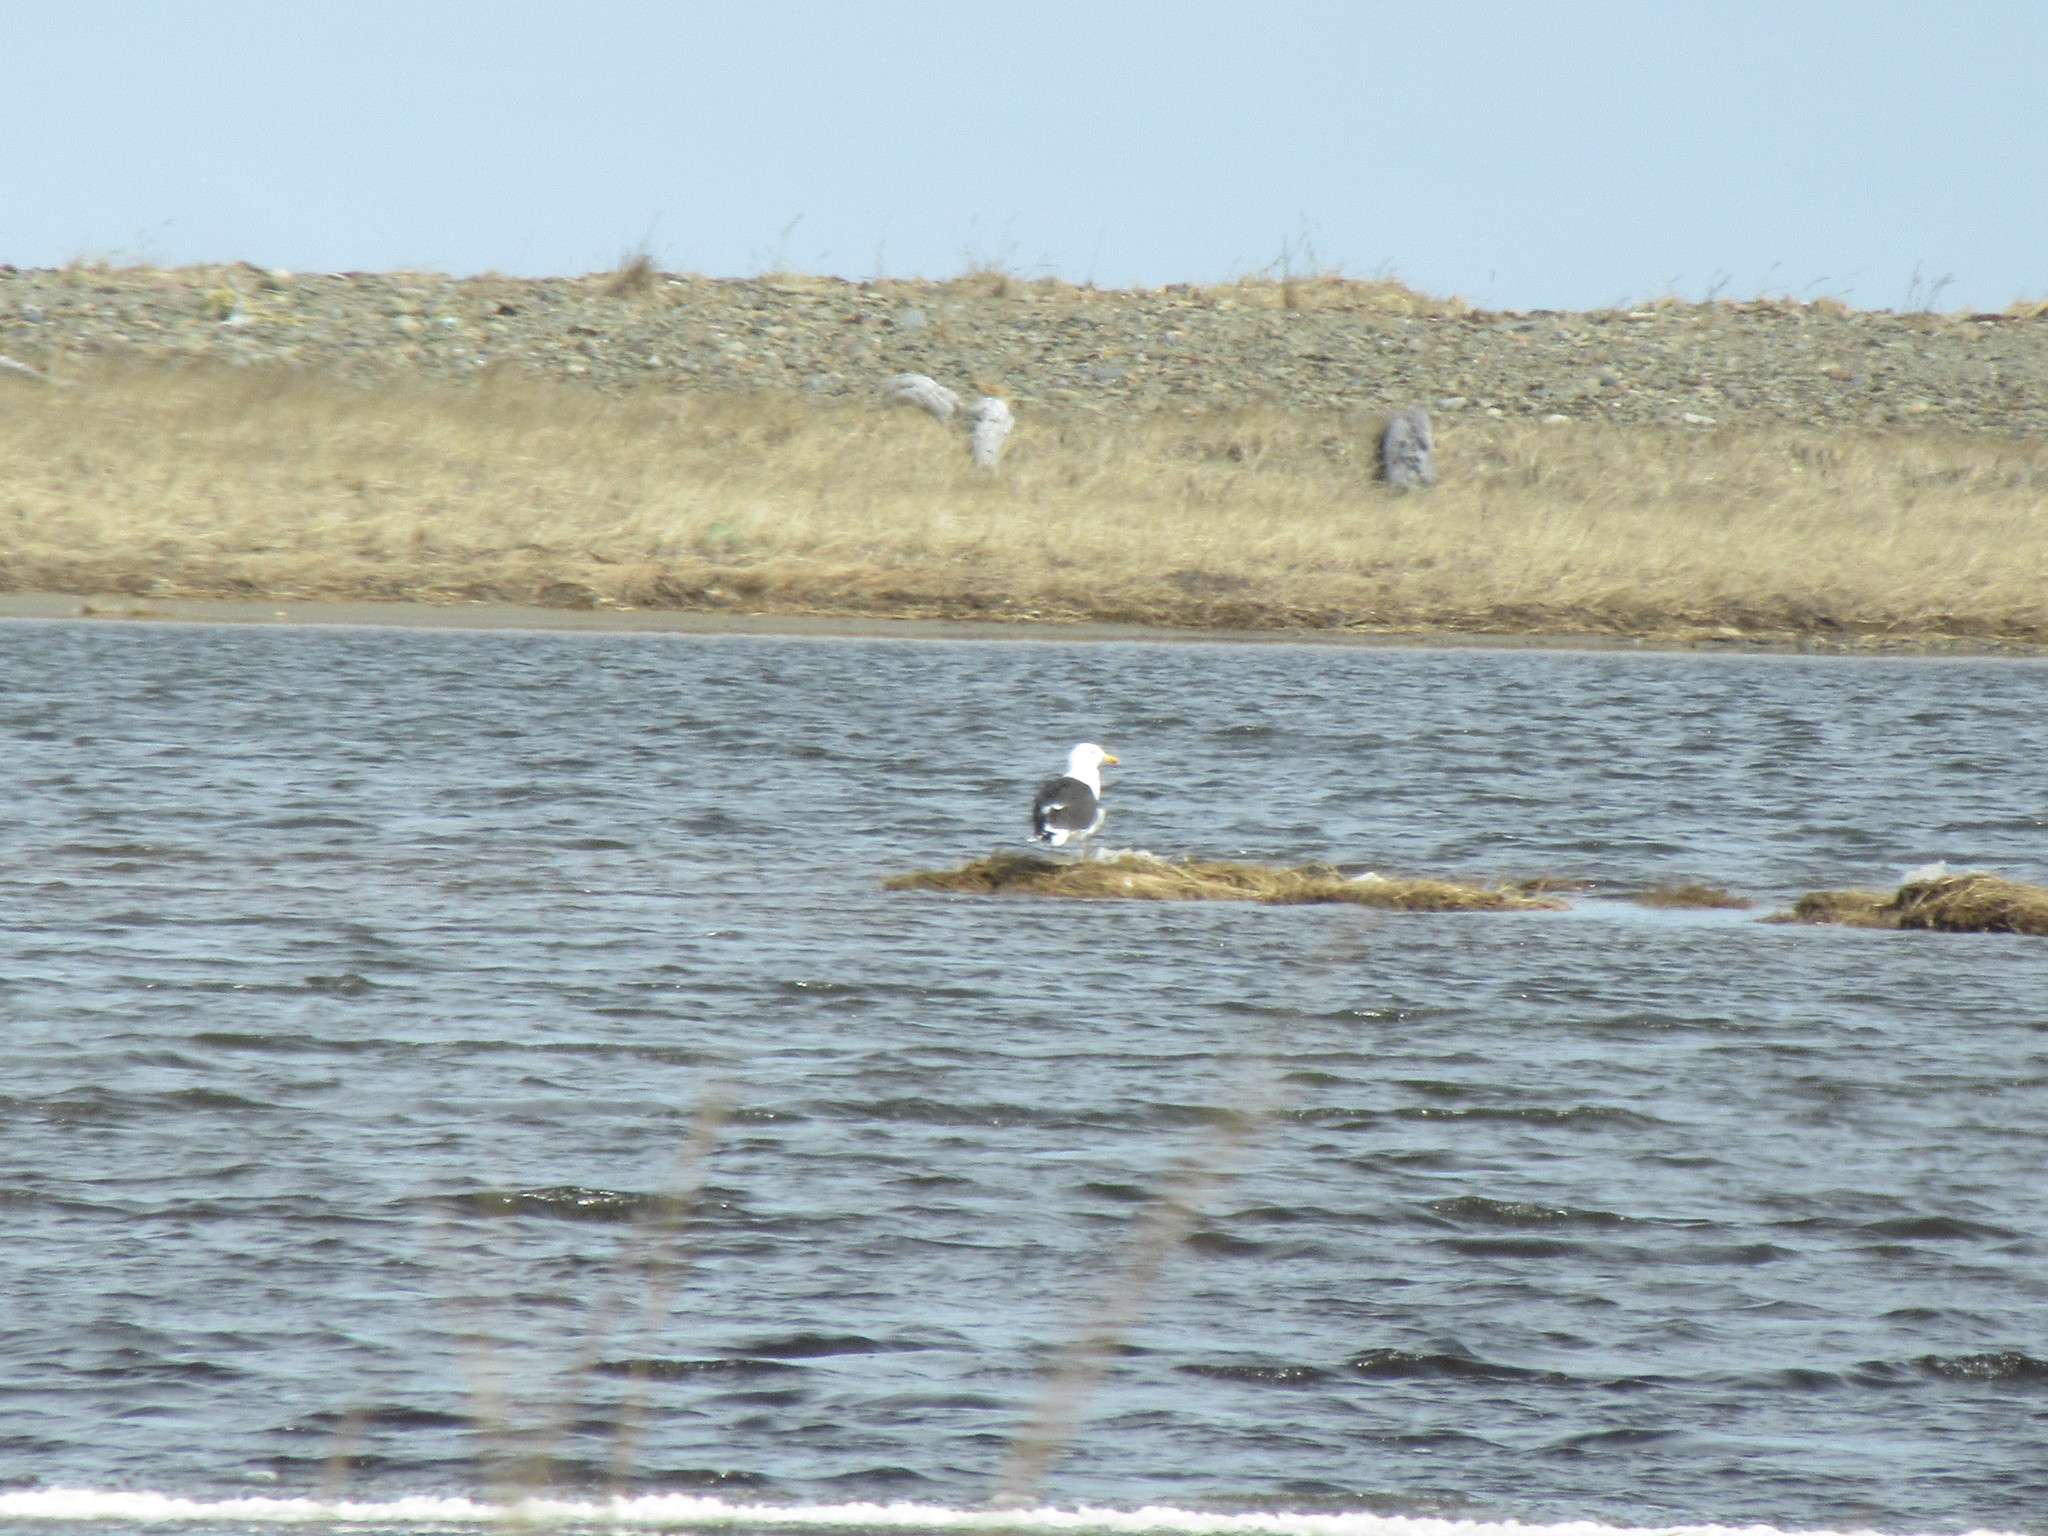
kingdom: Animalia
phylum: Chordata
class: Aves
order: Charadriiformes
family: Laridae
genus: Larus
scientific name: Larus marinus
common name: Great black-backed gull
